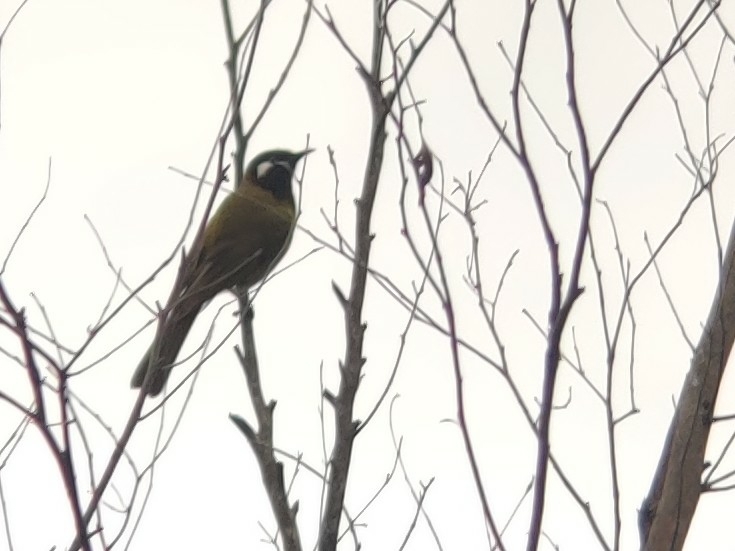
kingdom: Animalia
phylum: Chordata
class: Aves
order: Passeriformes
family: Meliphagidae
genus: Nesoptilotis
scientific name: Nesoptilotis leucotis
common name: White-eared honeyeater
